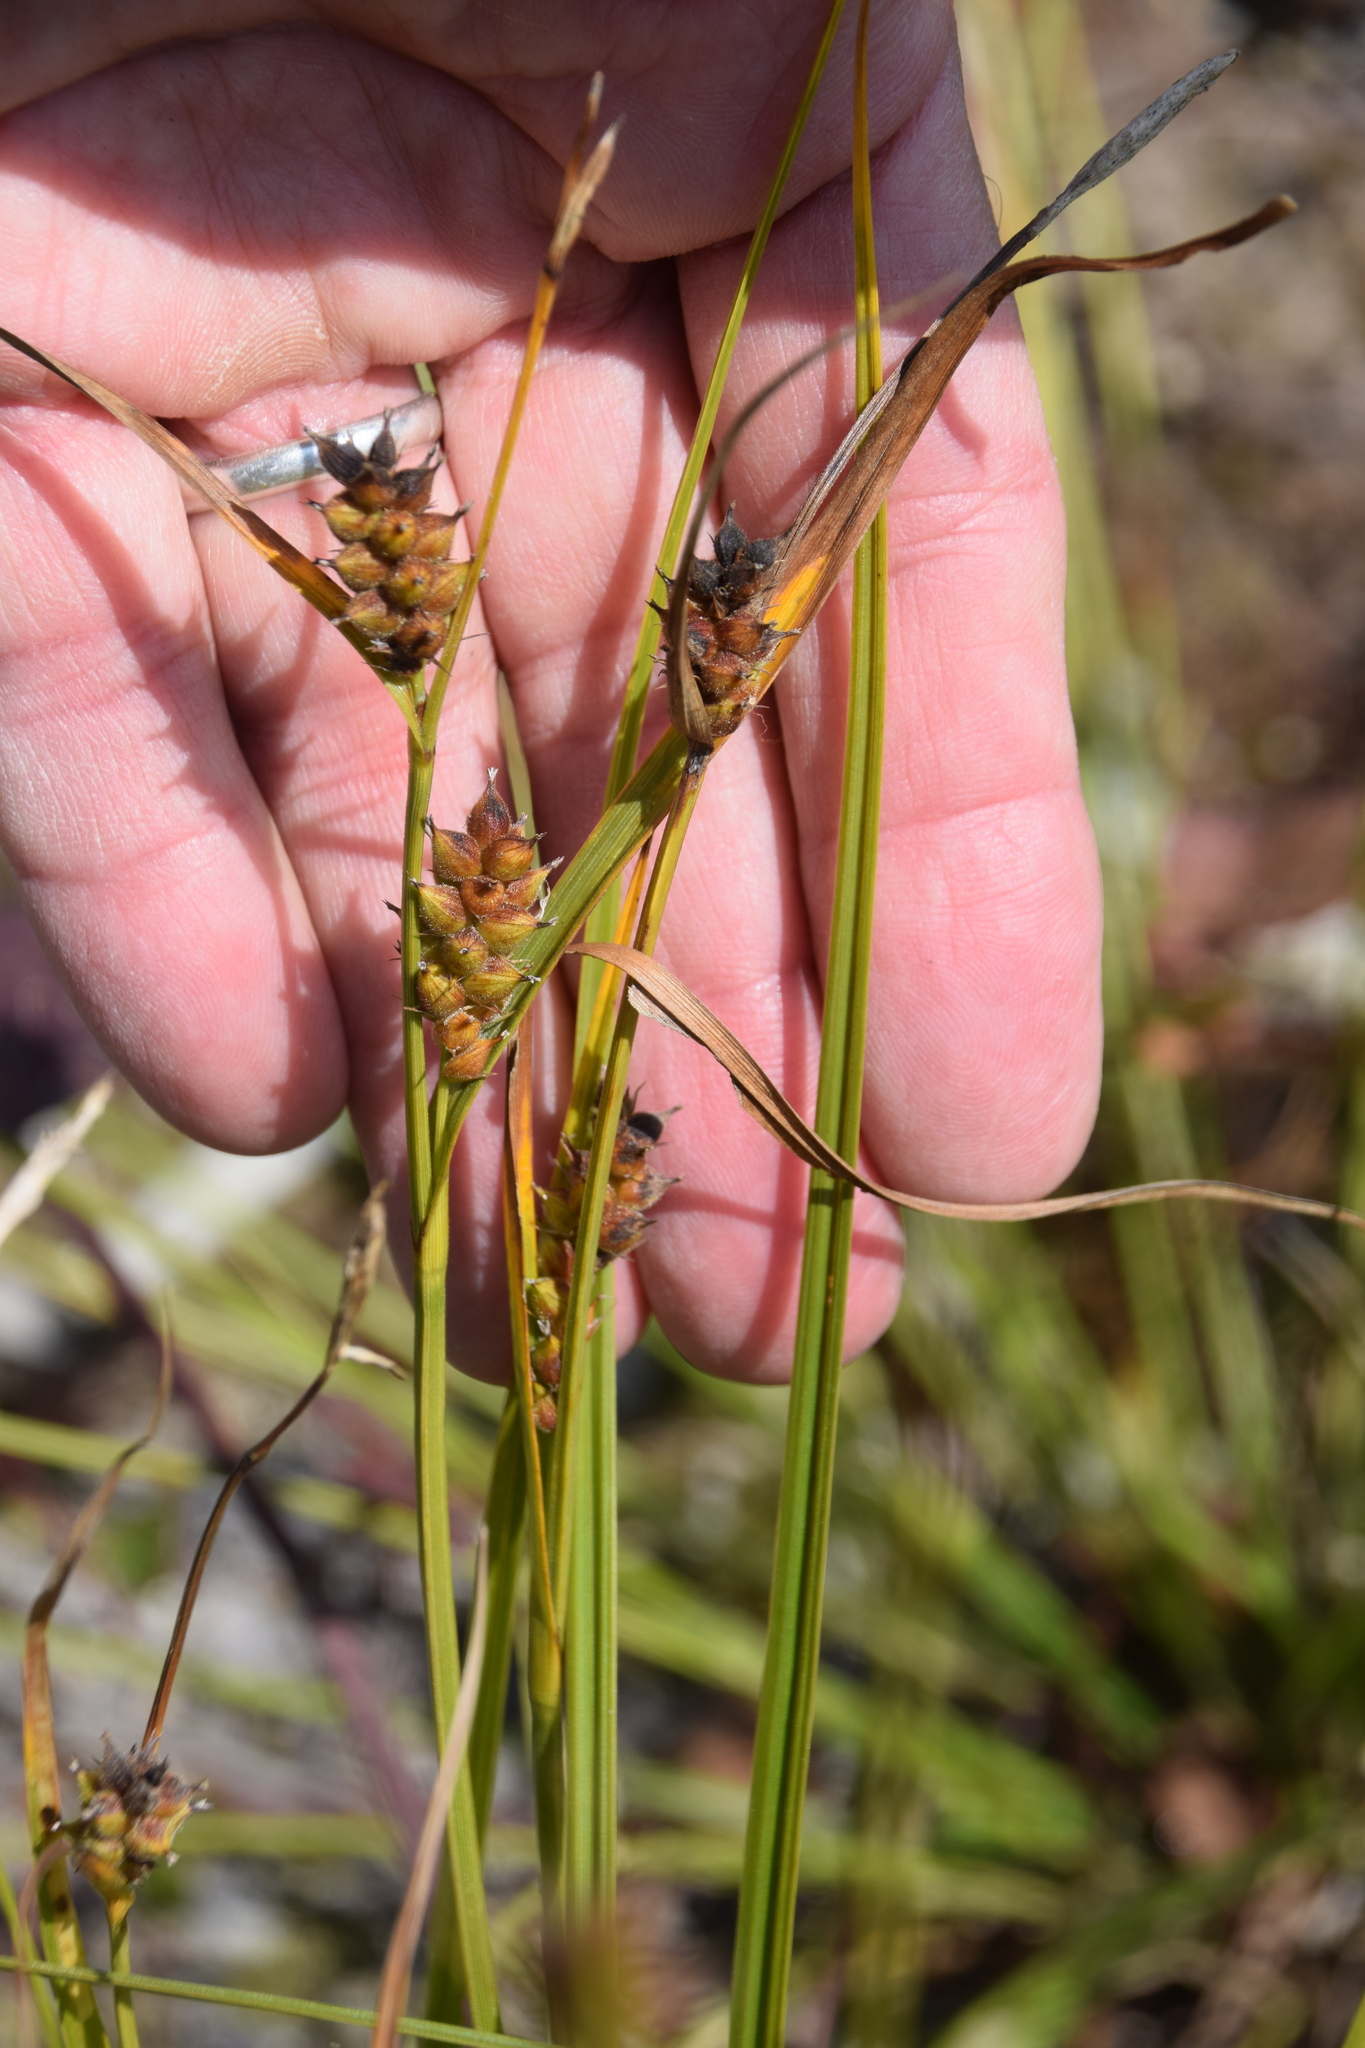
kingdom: Plantae
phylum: Tracheophyta
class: Liliopsida
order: Poales
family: Cyperaceae
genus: Carex
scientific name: Carex houghtoniana
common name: Houghton's sedge
